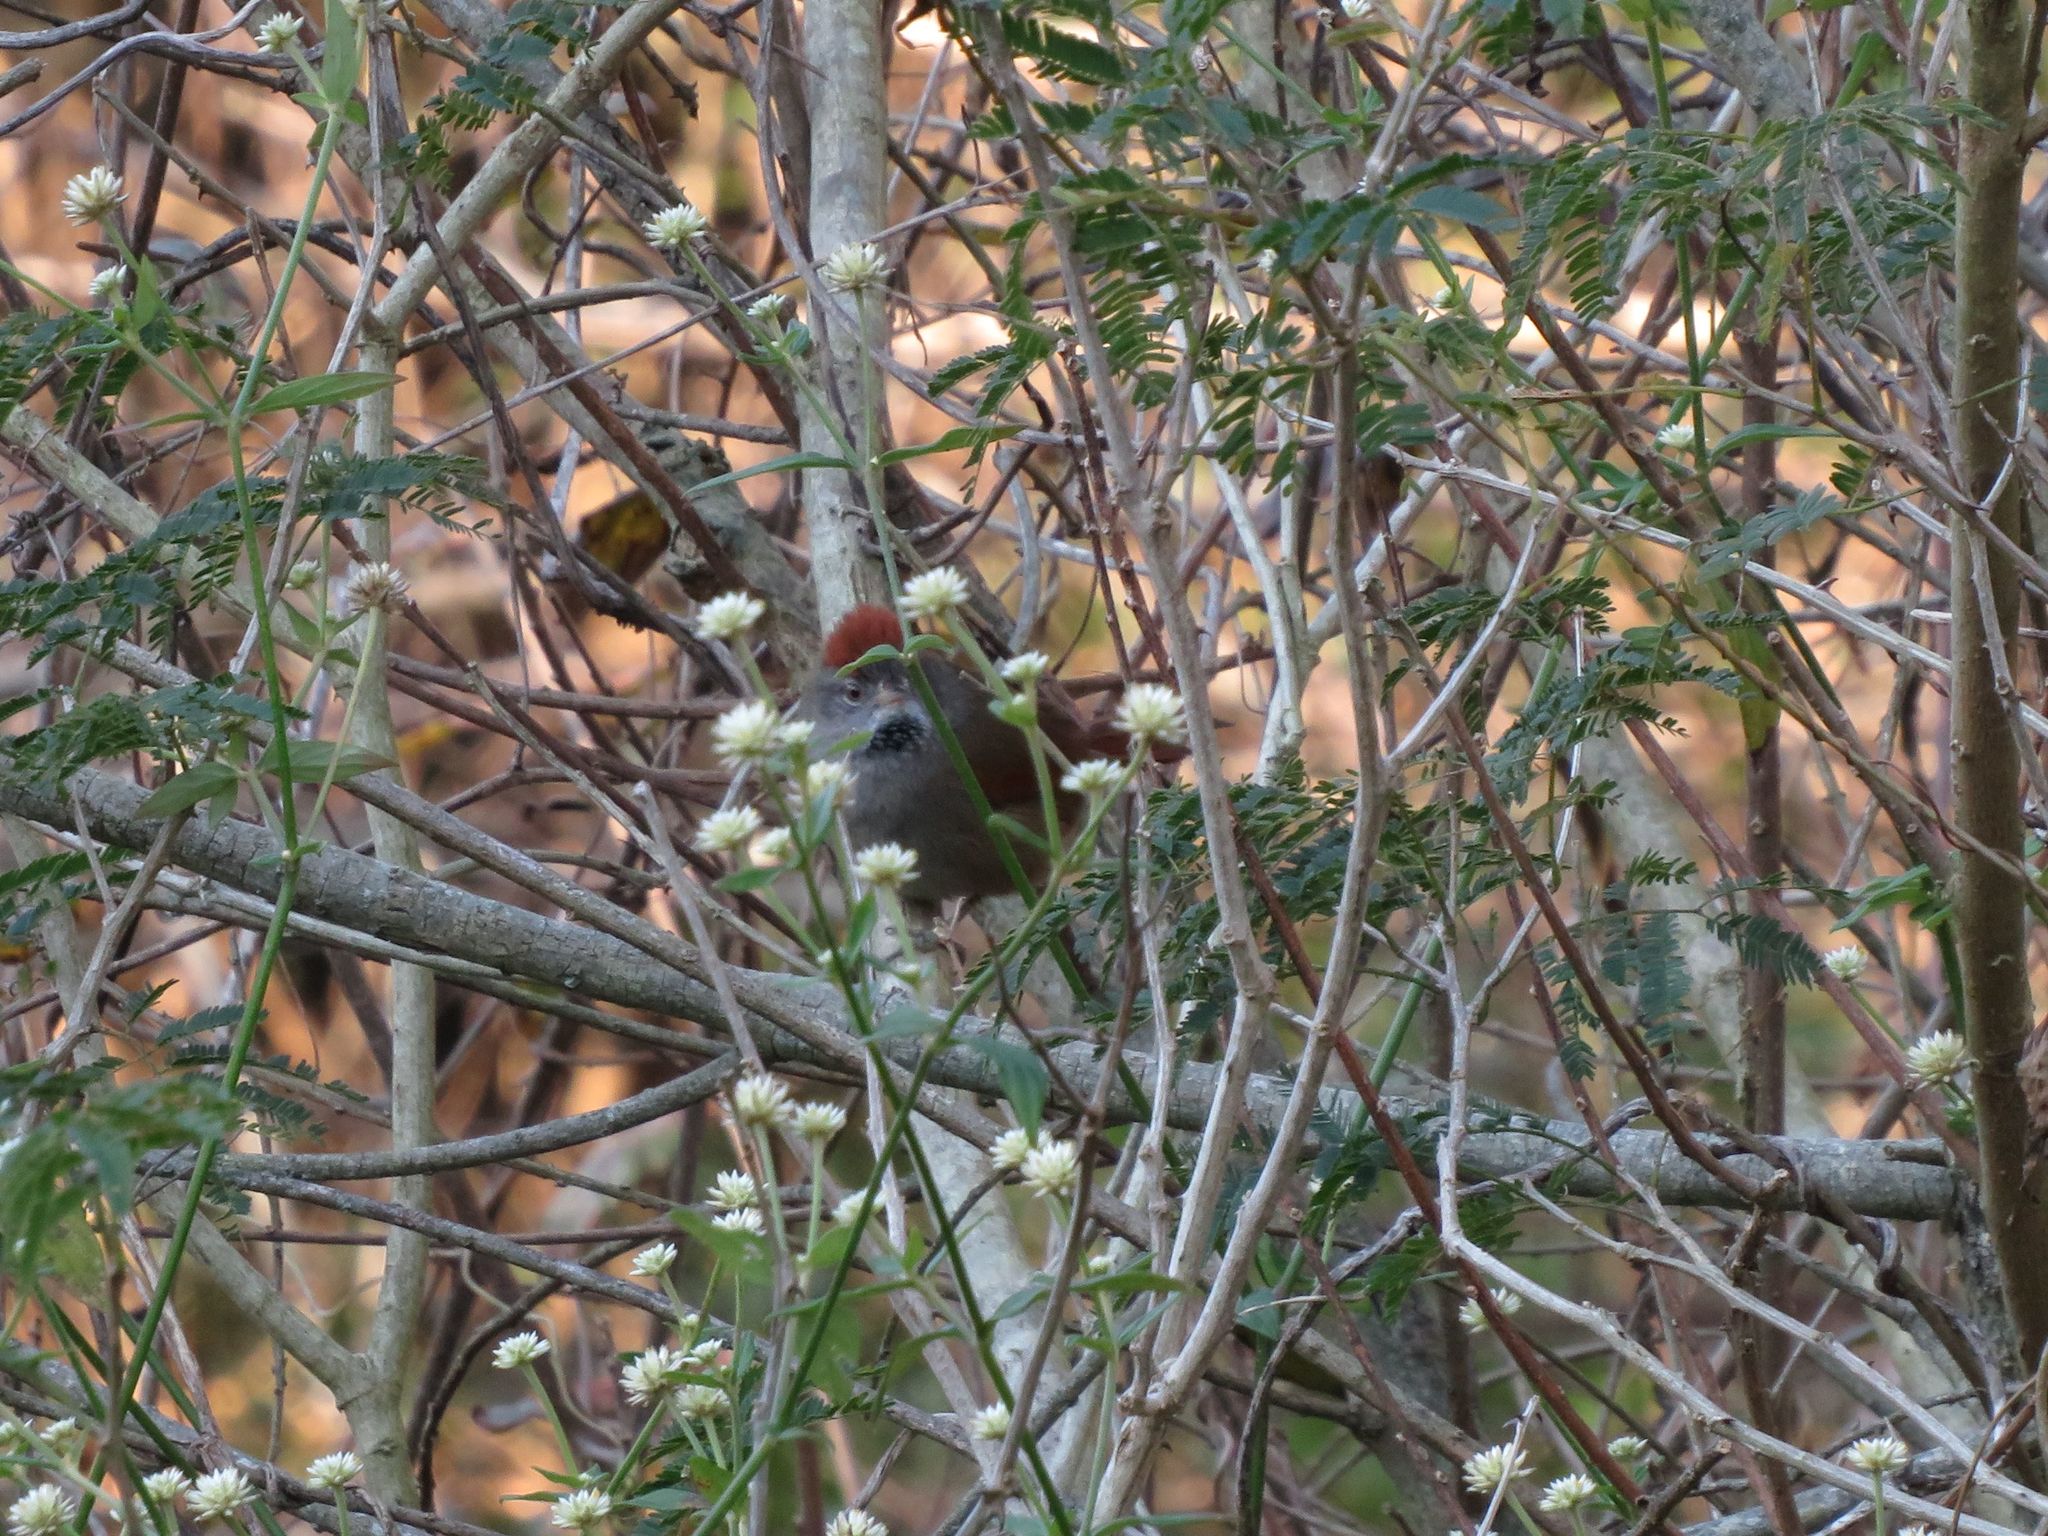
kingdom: Animalia
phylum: Chordata
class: Aves
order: Passeriformes
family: Furnariidae
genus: Synallaxis
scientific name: Synallaxis frontalis
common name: Sooty-fronted spinetail
